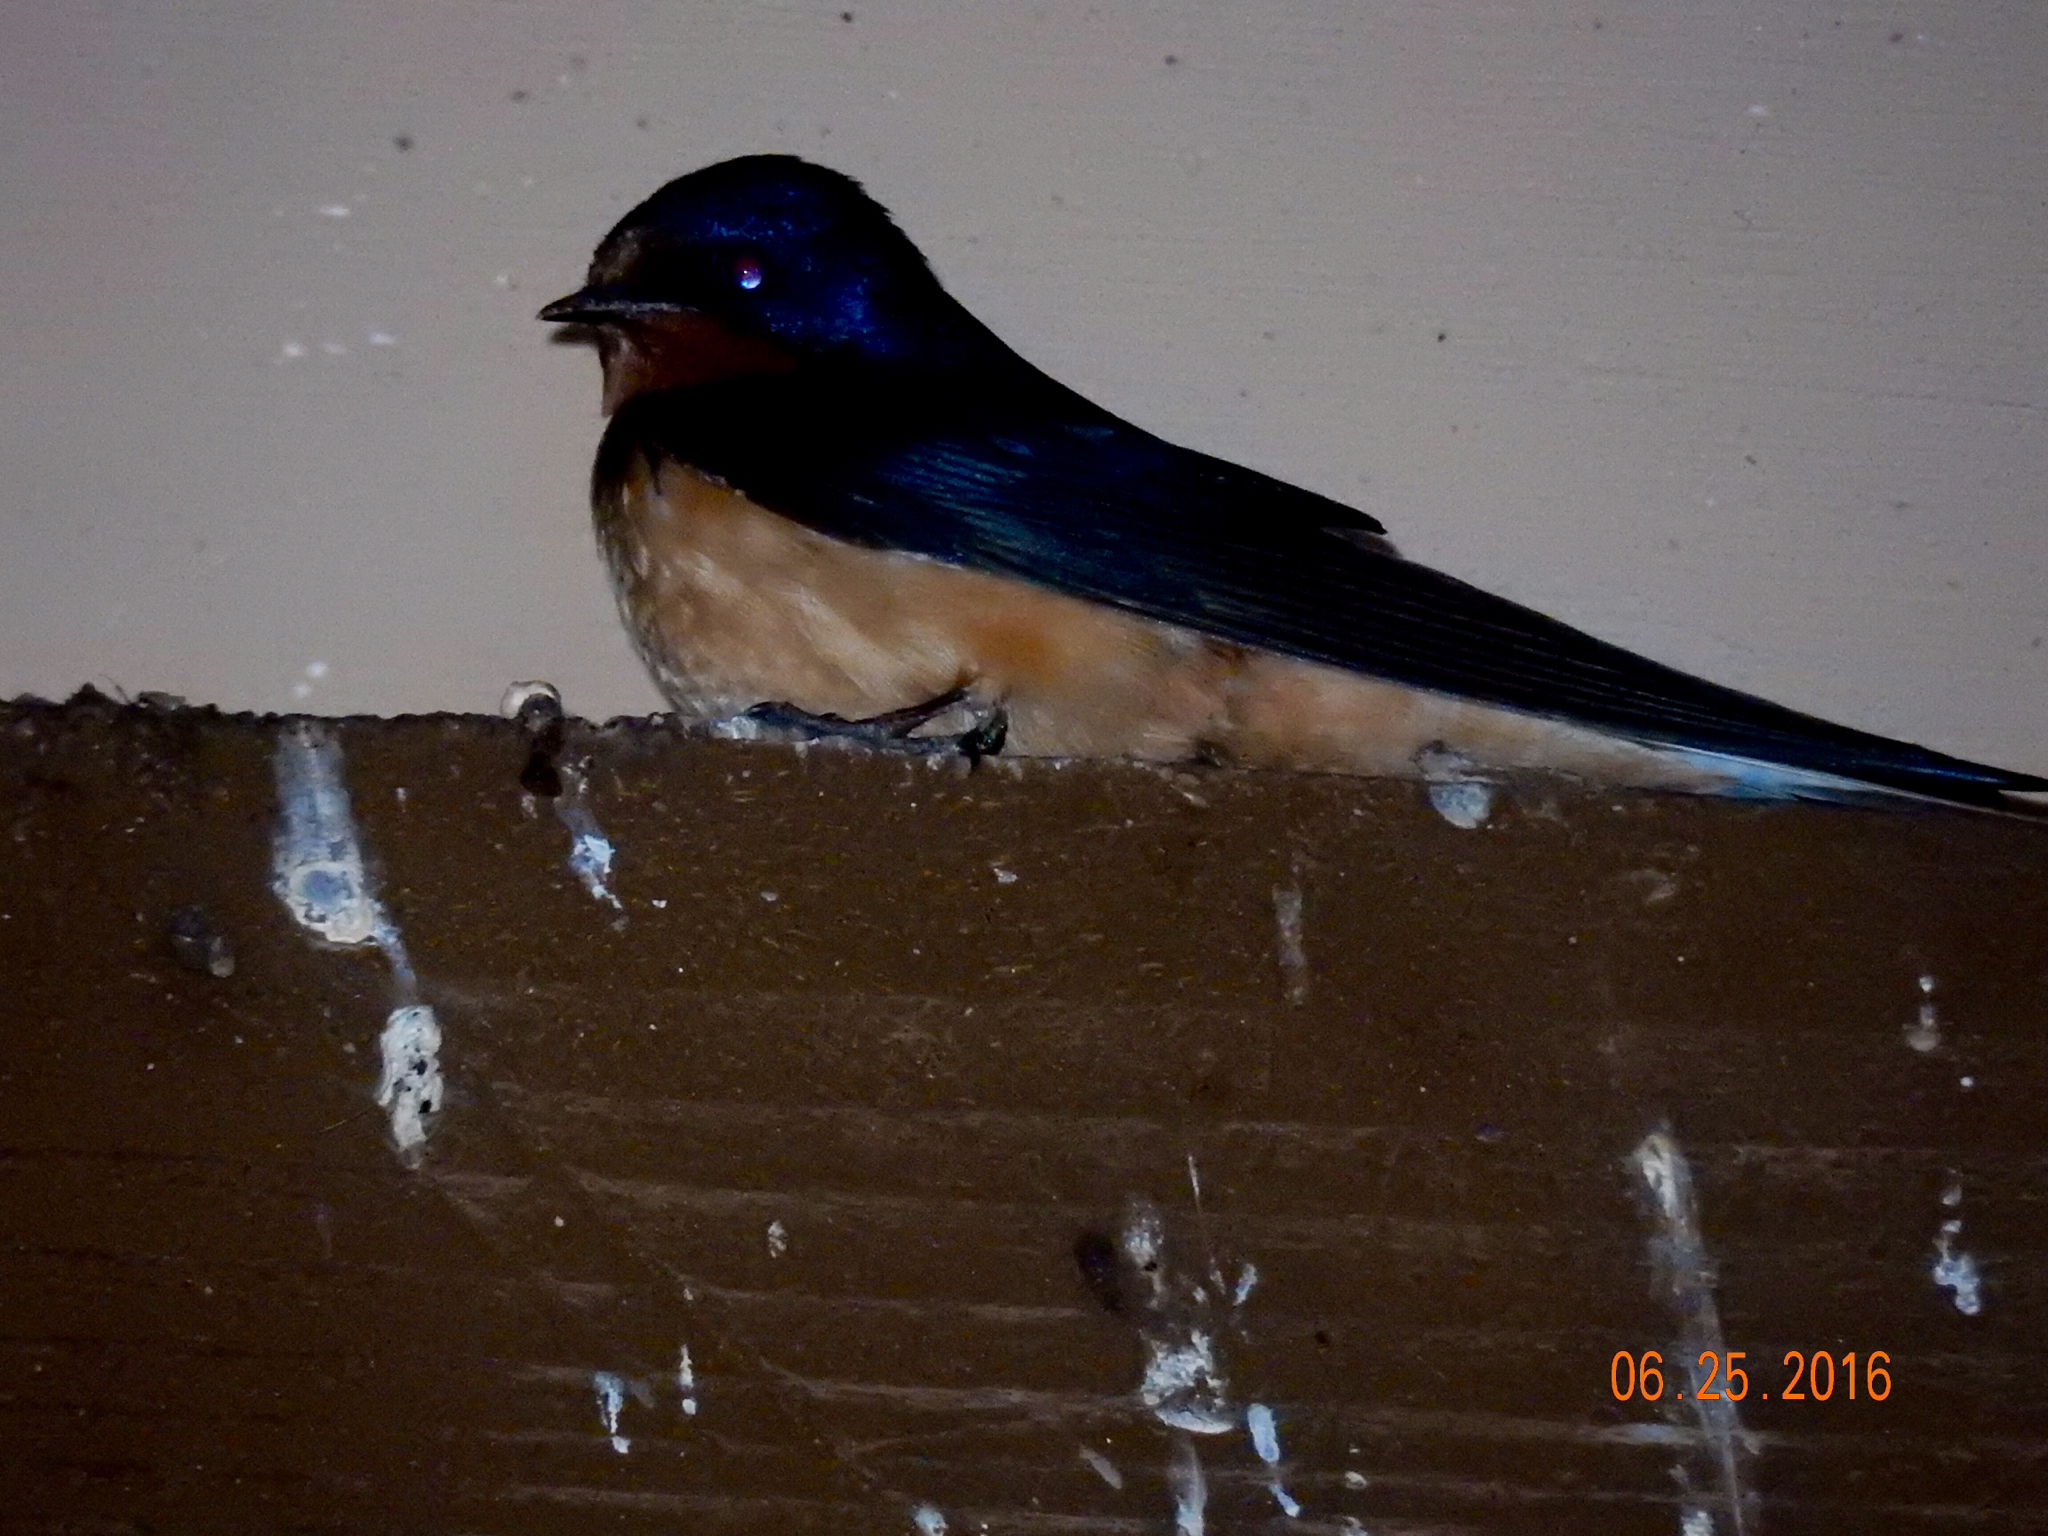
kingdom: Animalia
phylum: Chordata
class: Aves
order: Passeriformes
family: Hirundinidae
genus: Hirundo
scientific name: Hirundo rustica
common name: Barn swallow
